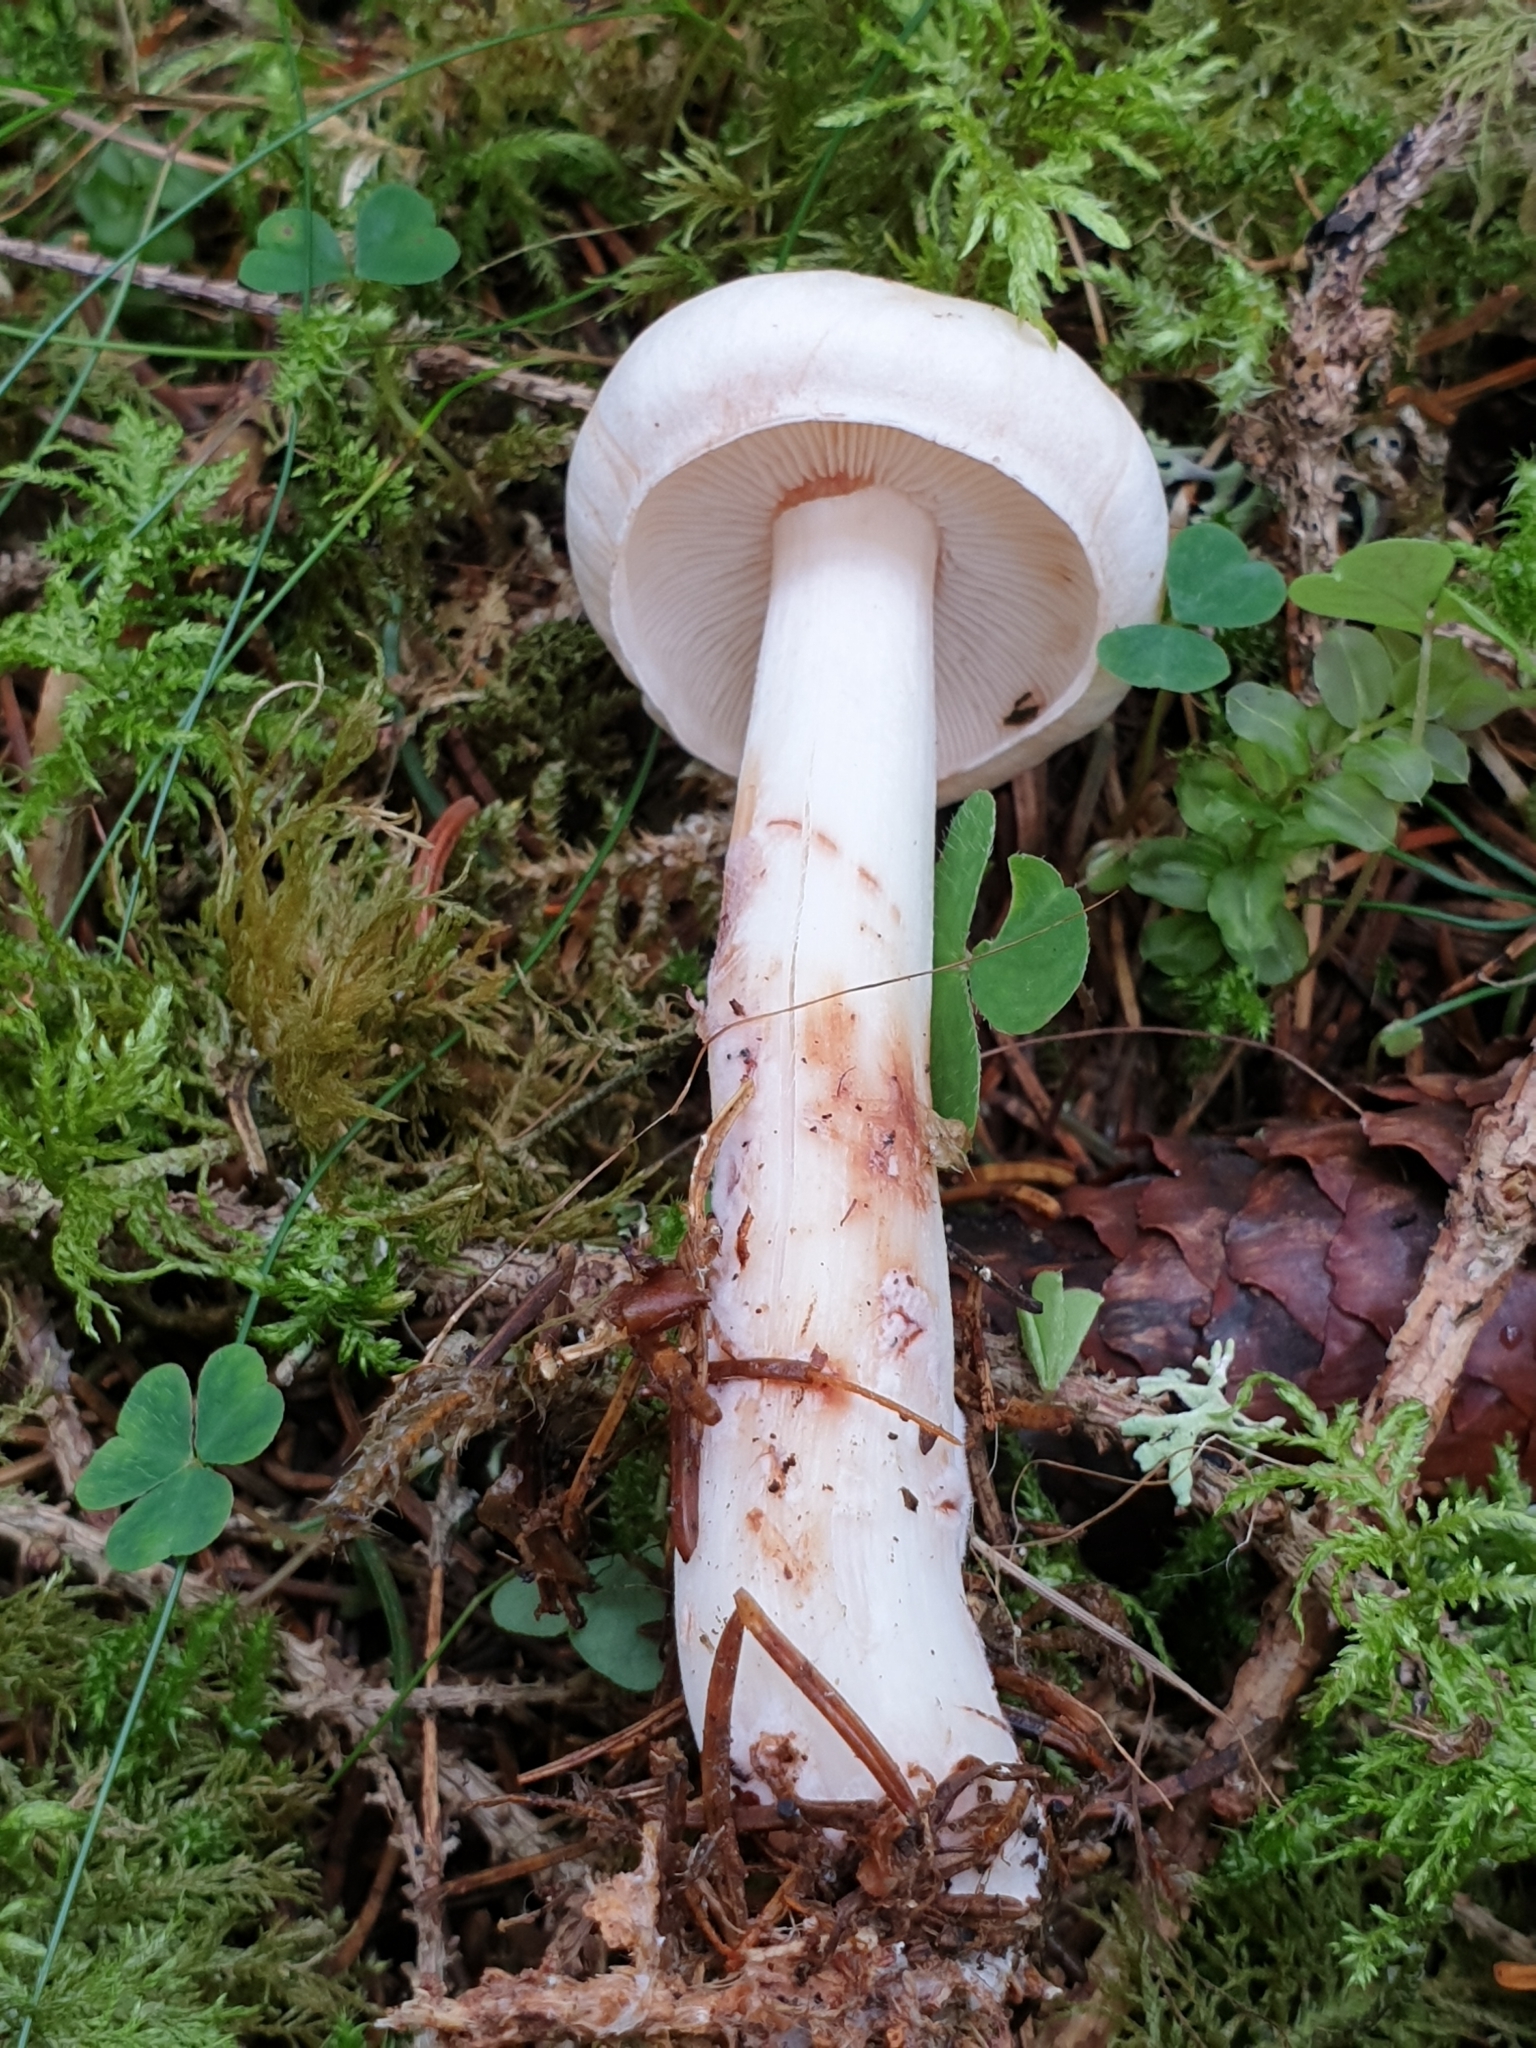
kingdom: Fungi
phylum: Basidiomycota
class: Agaricomycetes
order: Agaricales
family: Omphalotaceae
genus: Rhodocollybia
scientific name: Rhodocollybia maculata
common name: Spotted tough-shank
